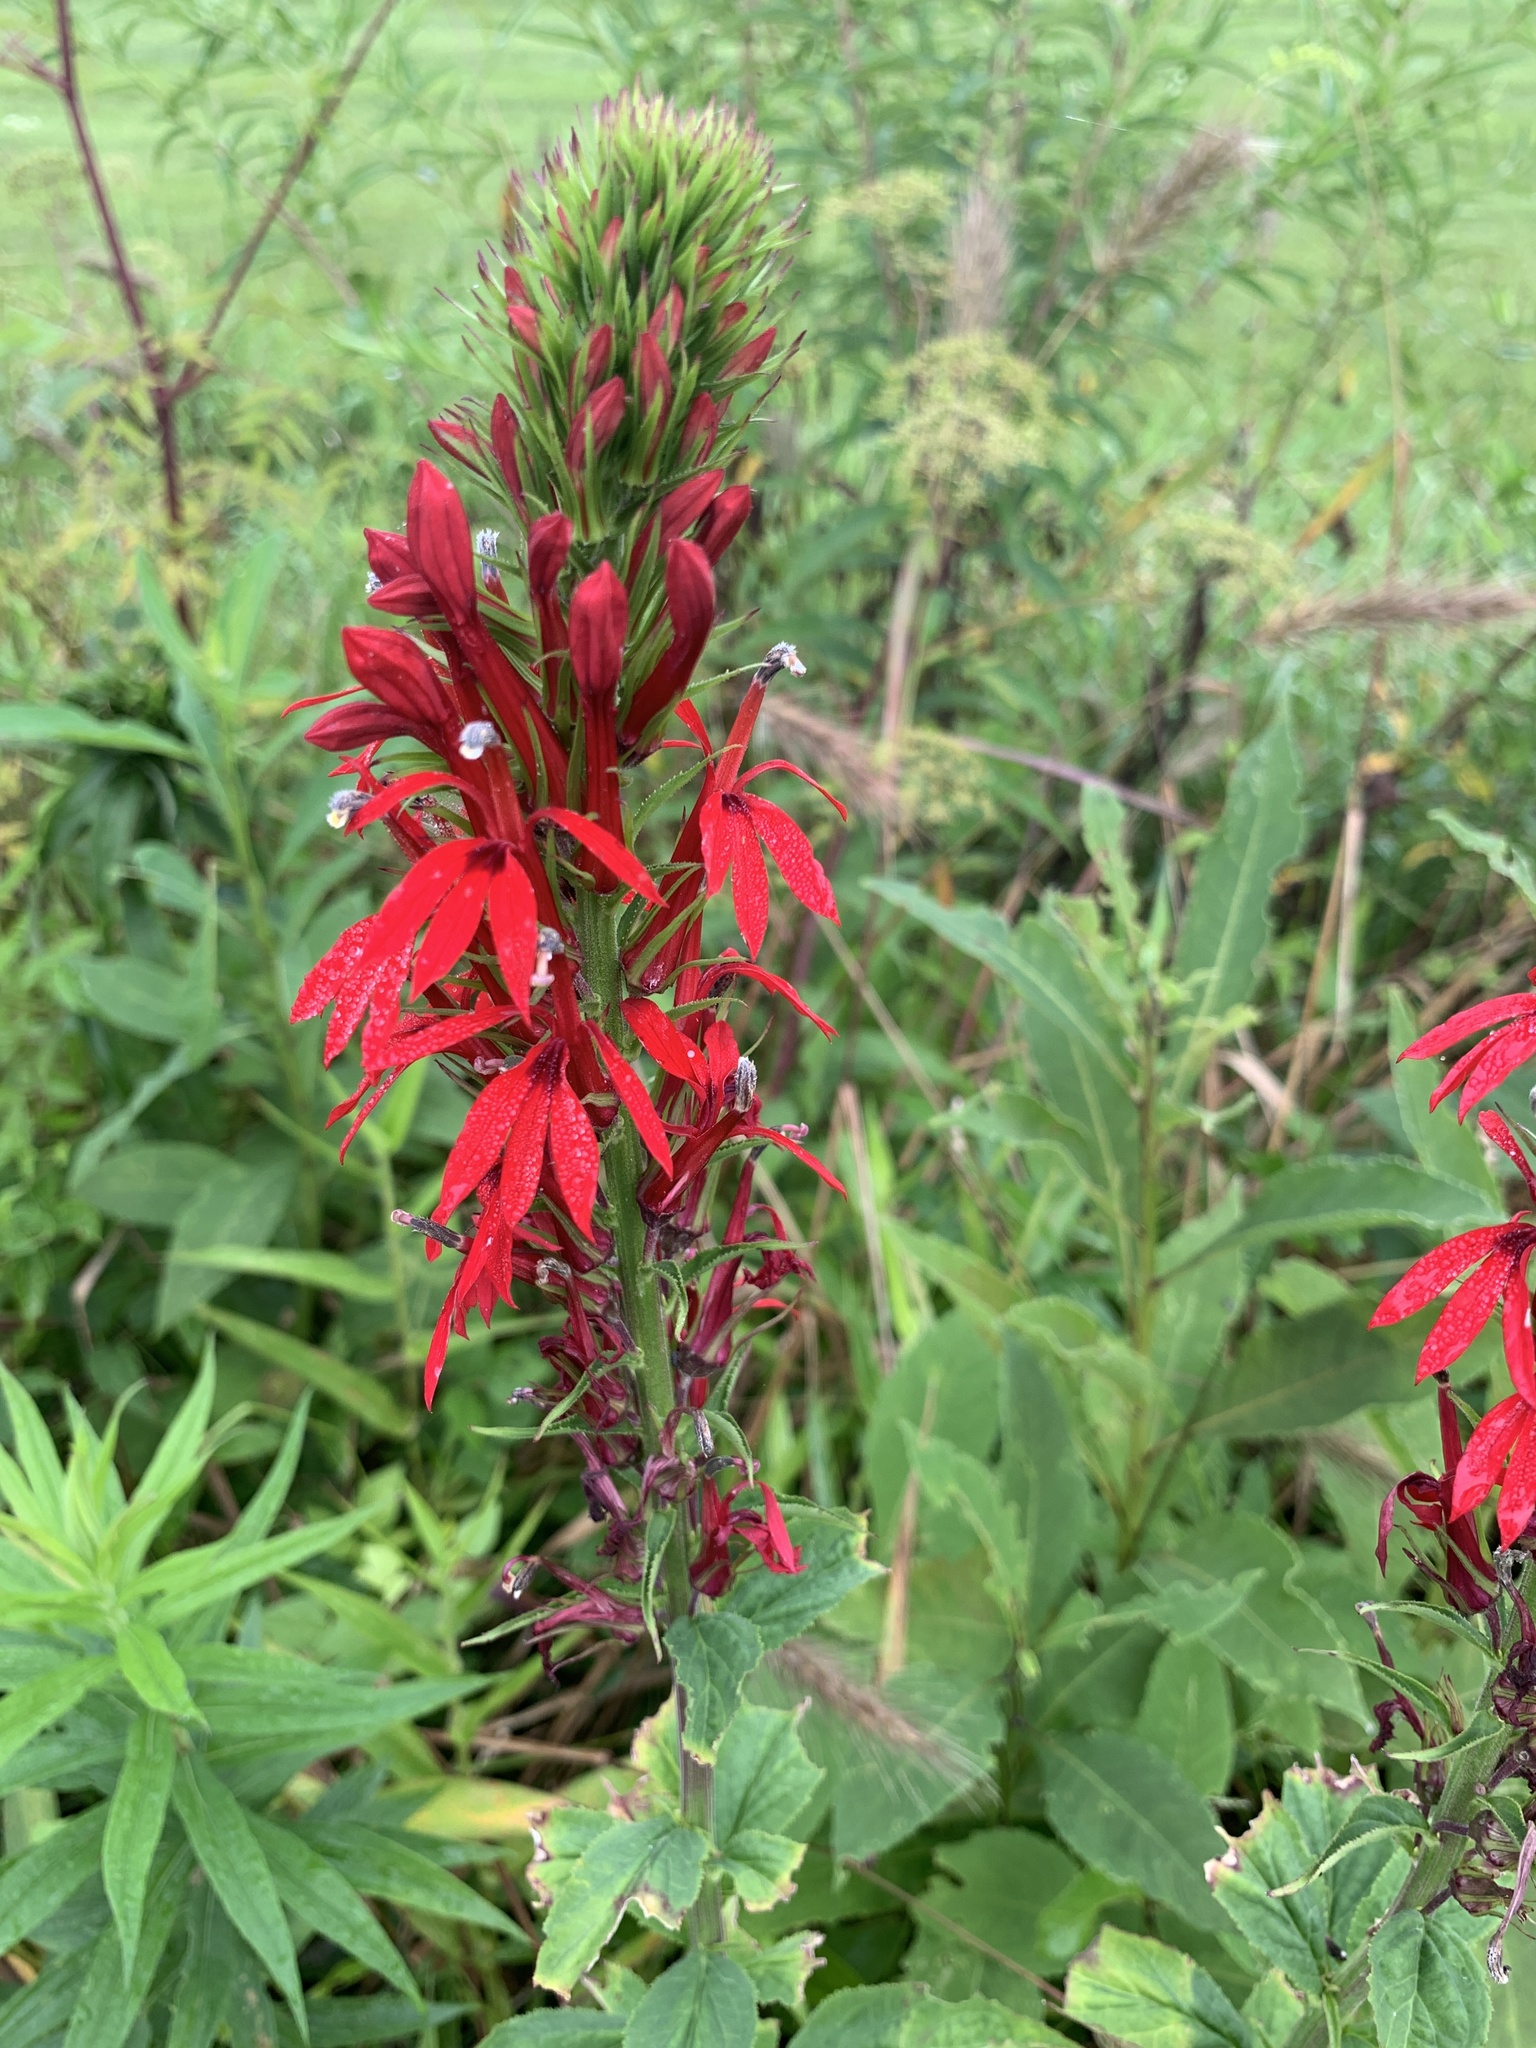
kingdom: Plantae
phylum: Tracheophyta
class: Magnoliopsida
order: Asterales
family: Campanulaceae
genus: Lobelia
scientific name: Lobelia cardinalis
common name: Cardinal flower
